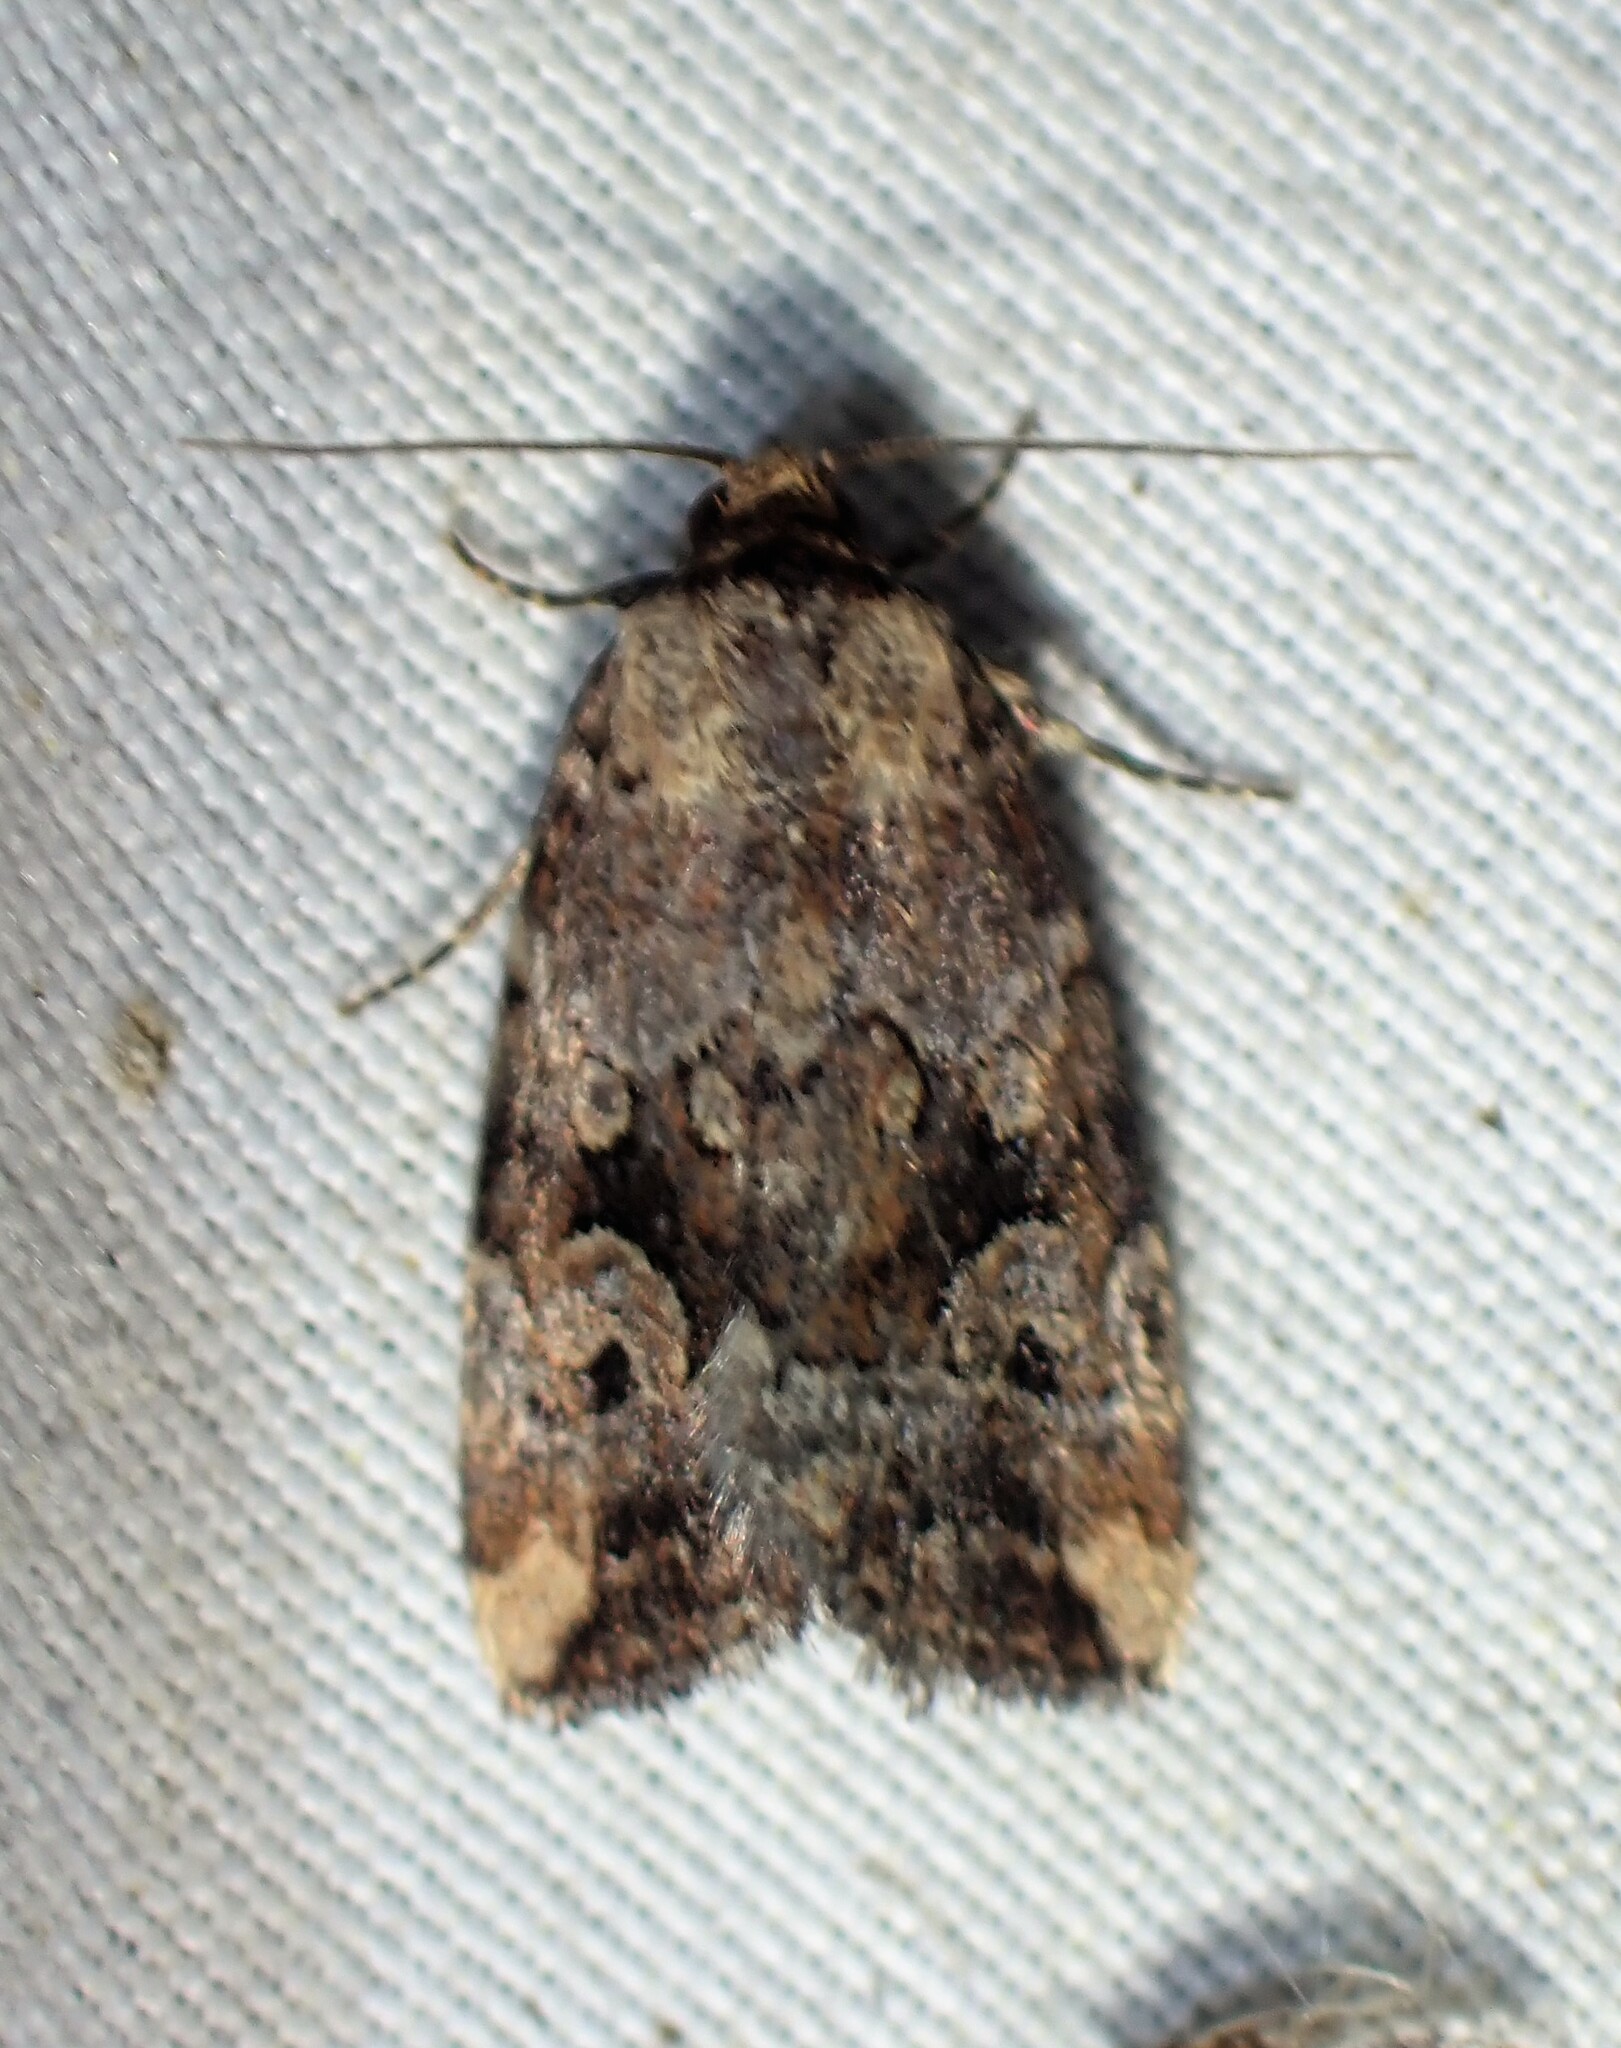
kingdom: Animalia
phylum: Arthropoda
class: Insecta
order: Lepidoptera
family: Noctuidae
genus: Elaphria
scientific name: Elaphria alapallida
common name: Pale-winged midget
